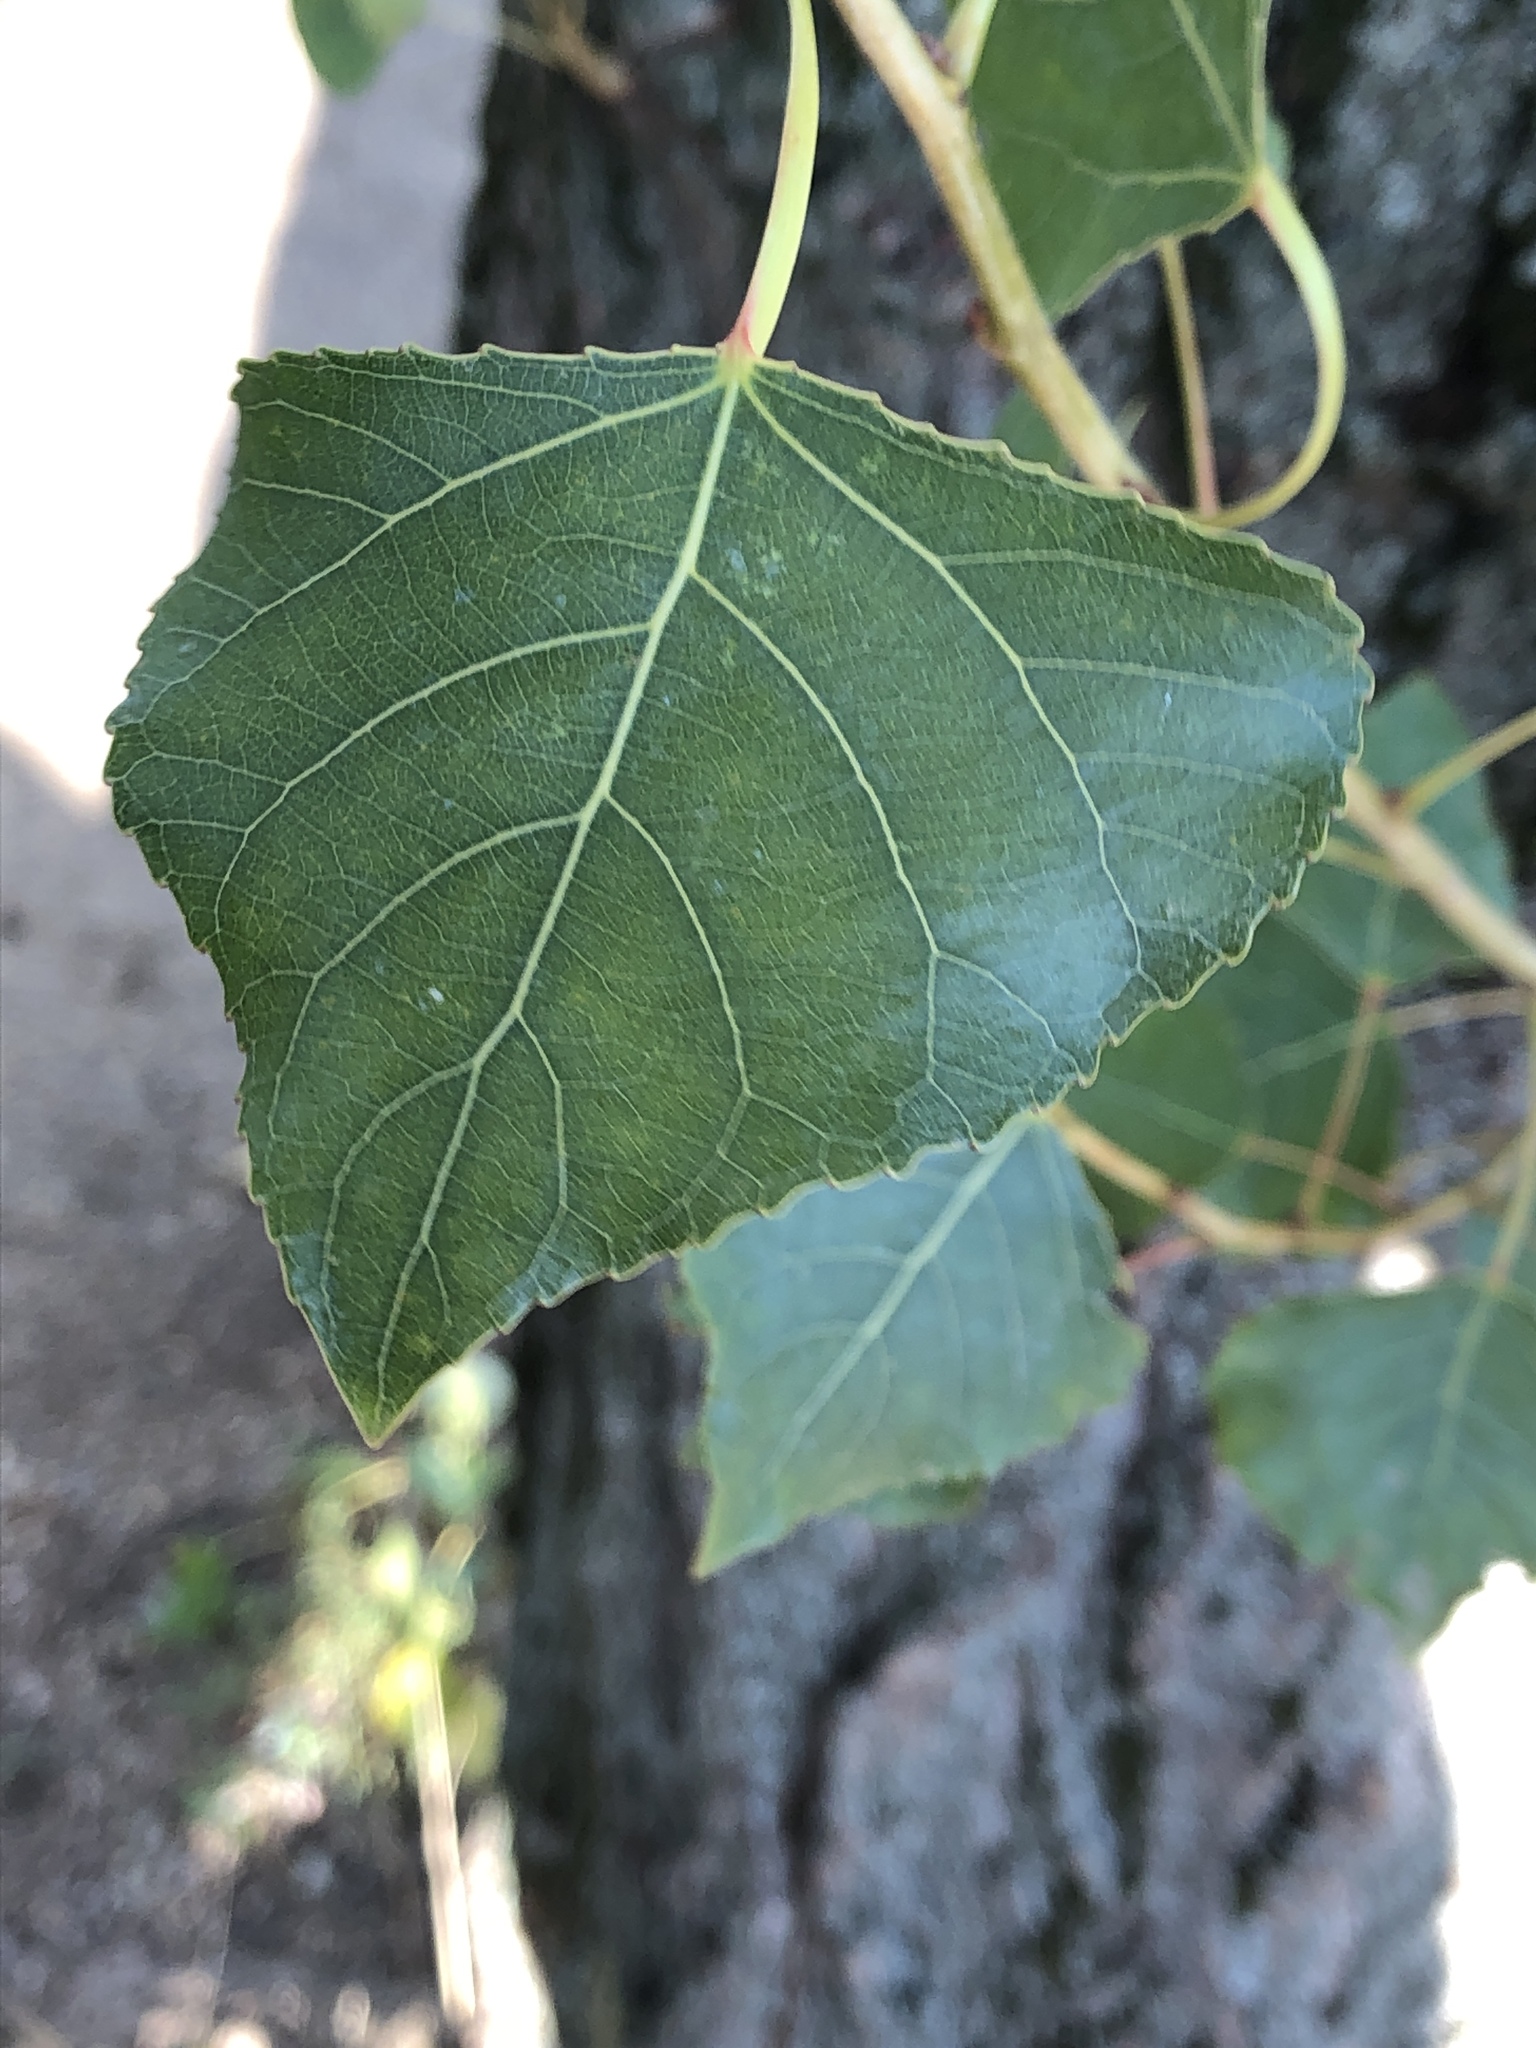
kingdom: Animalia
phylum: Arthropoda
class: Insecta
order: Hemiptera
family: Aphididae
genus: Pemphigus
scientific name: Pemphigus spyrothecae
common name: Aphid
